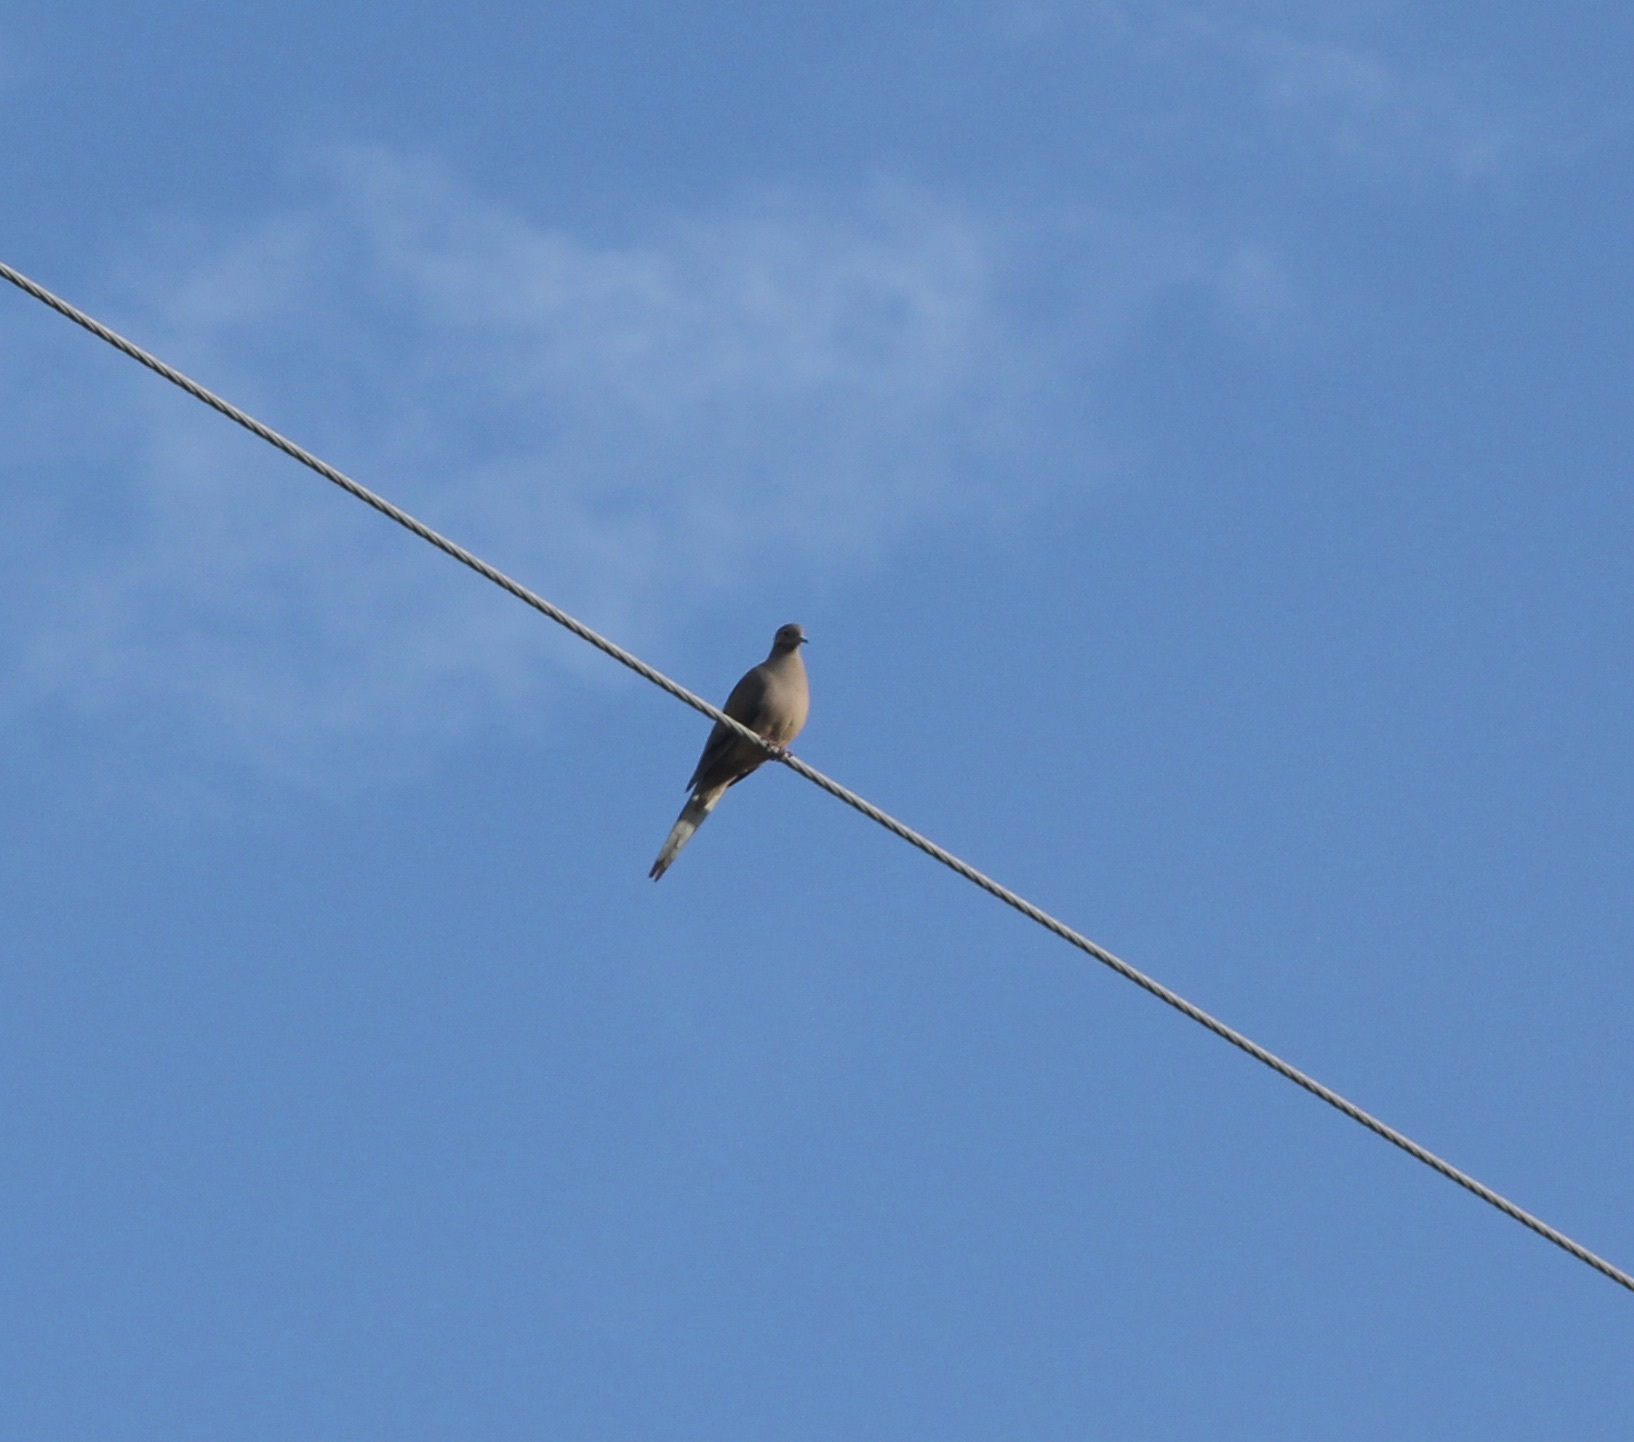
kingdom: Animalia
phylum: Chordata
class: Aves
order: Columbiformes
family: Columbidae
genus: Zenaida
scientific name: Zenaida macroura
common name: Mourning dove
